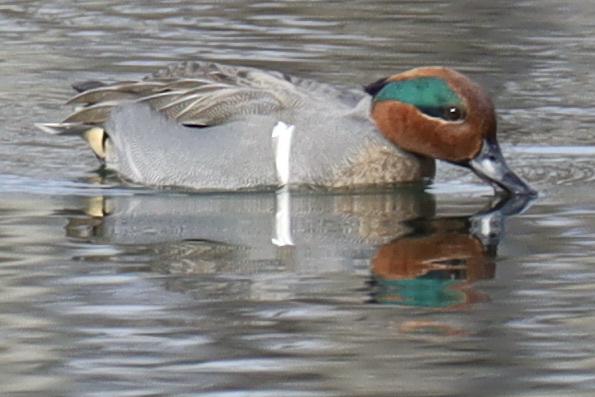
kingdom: Animalia
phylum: Chordata
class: Aves
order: Anseriformes
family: Anatidae
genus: Anas
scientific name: Anas carolinensis
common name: Green-winged teal
